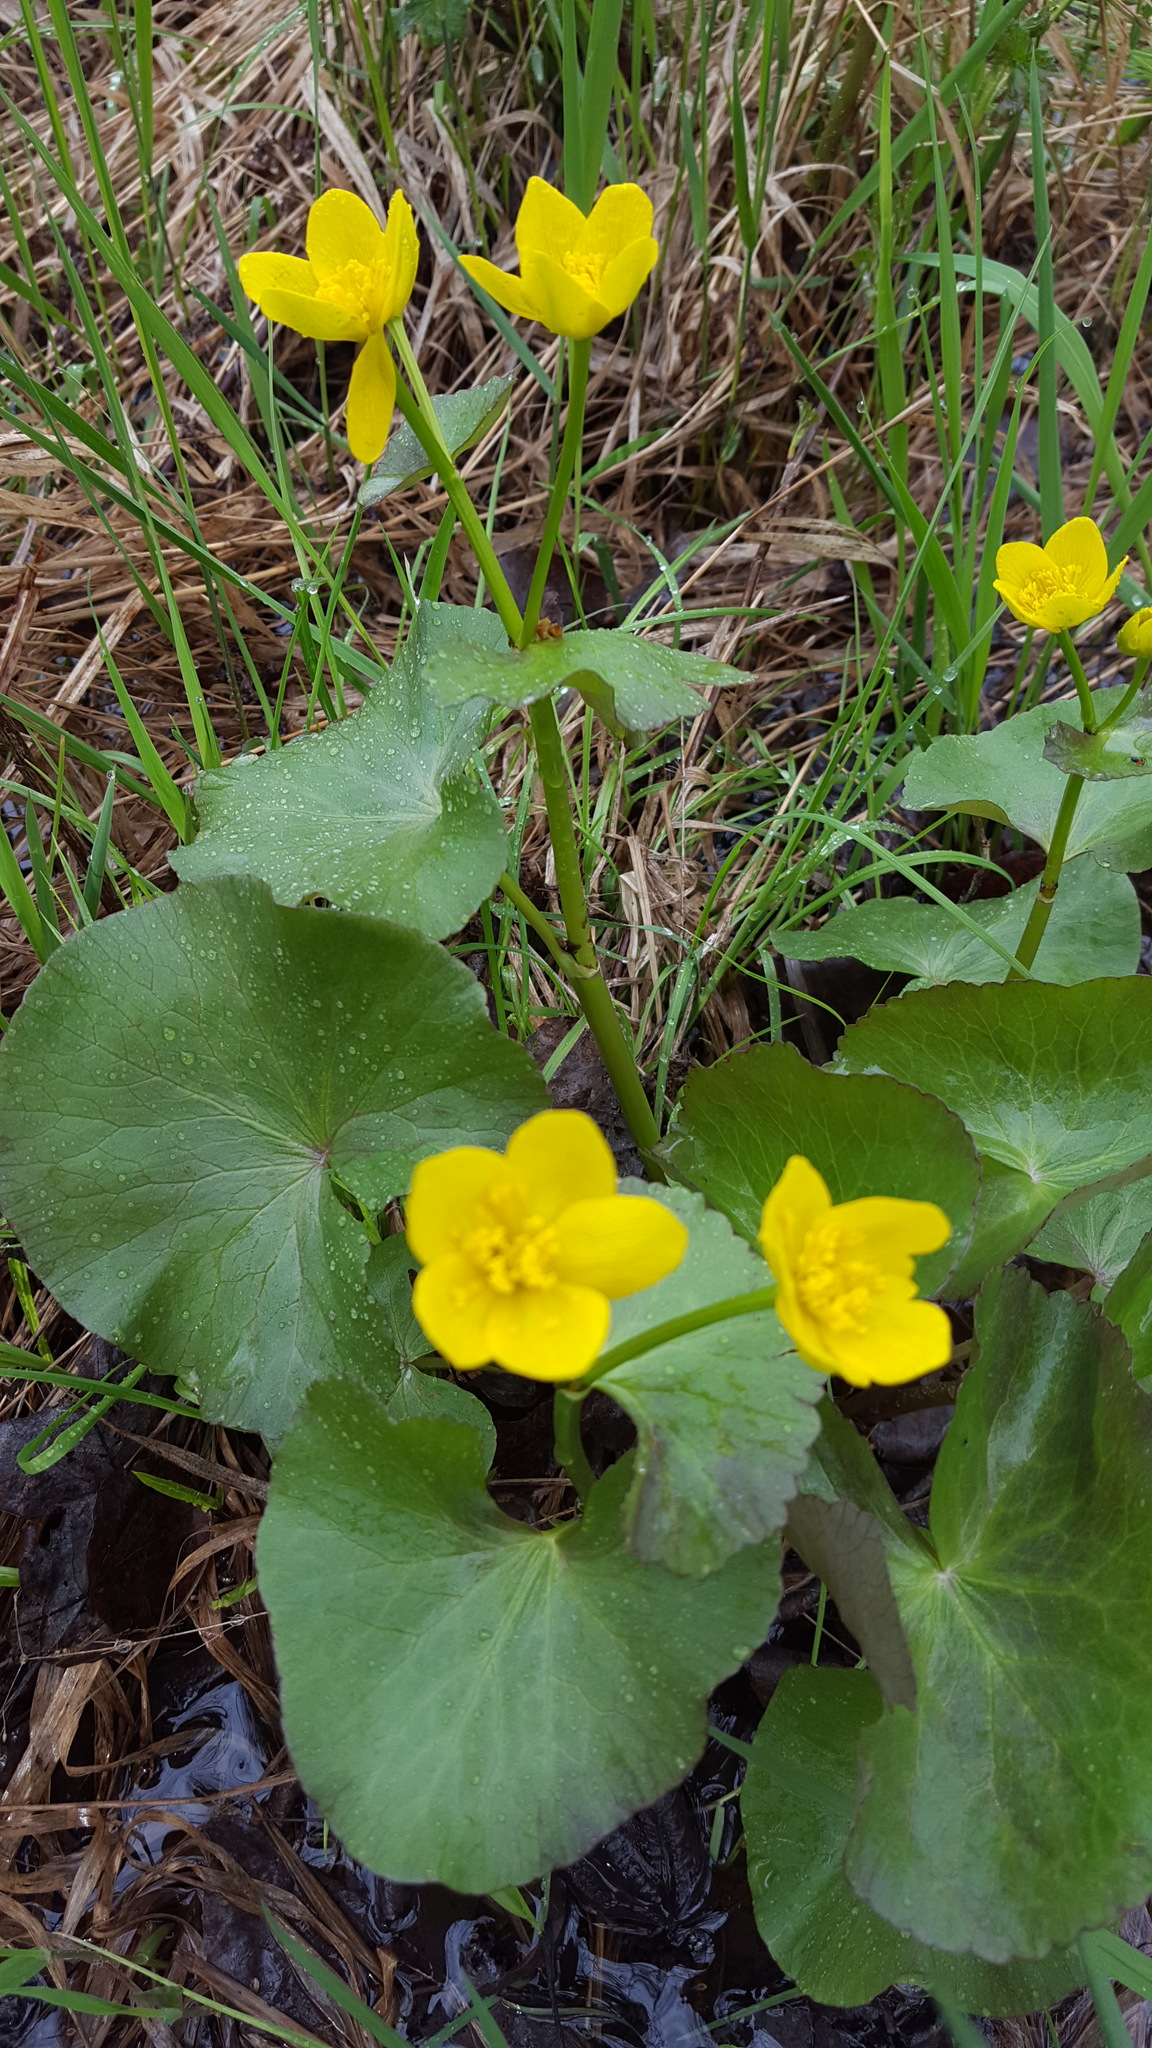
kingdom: Plantae
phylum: Tracheophyta
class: Magnoliopsida
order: Ranunculales
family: Ranunculaceae
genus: Caltha
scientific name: Caltha palustris
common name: Marsh marigold
